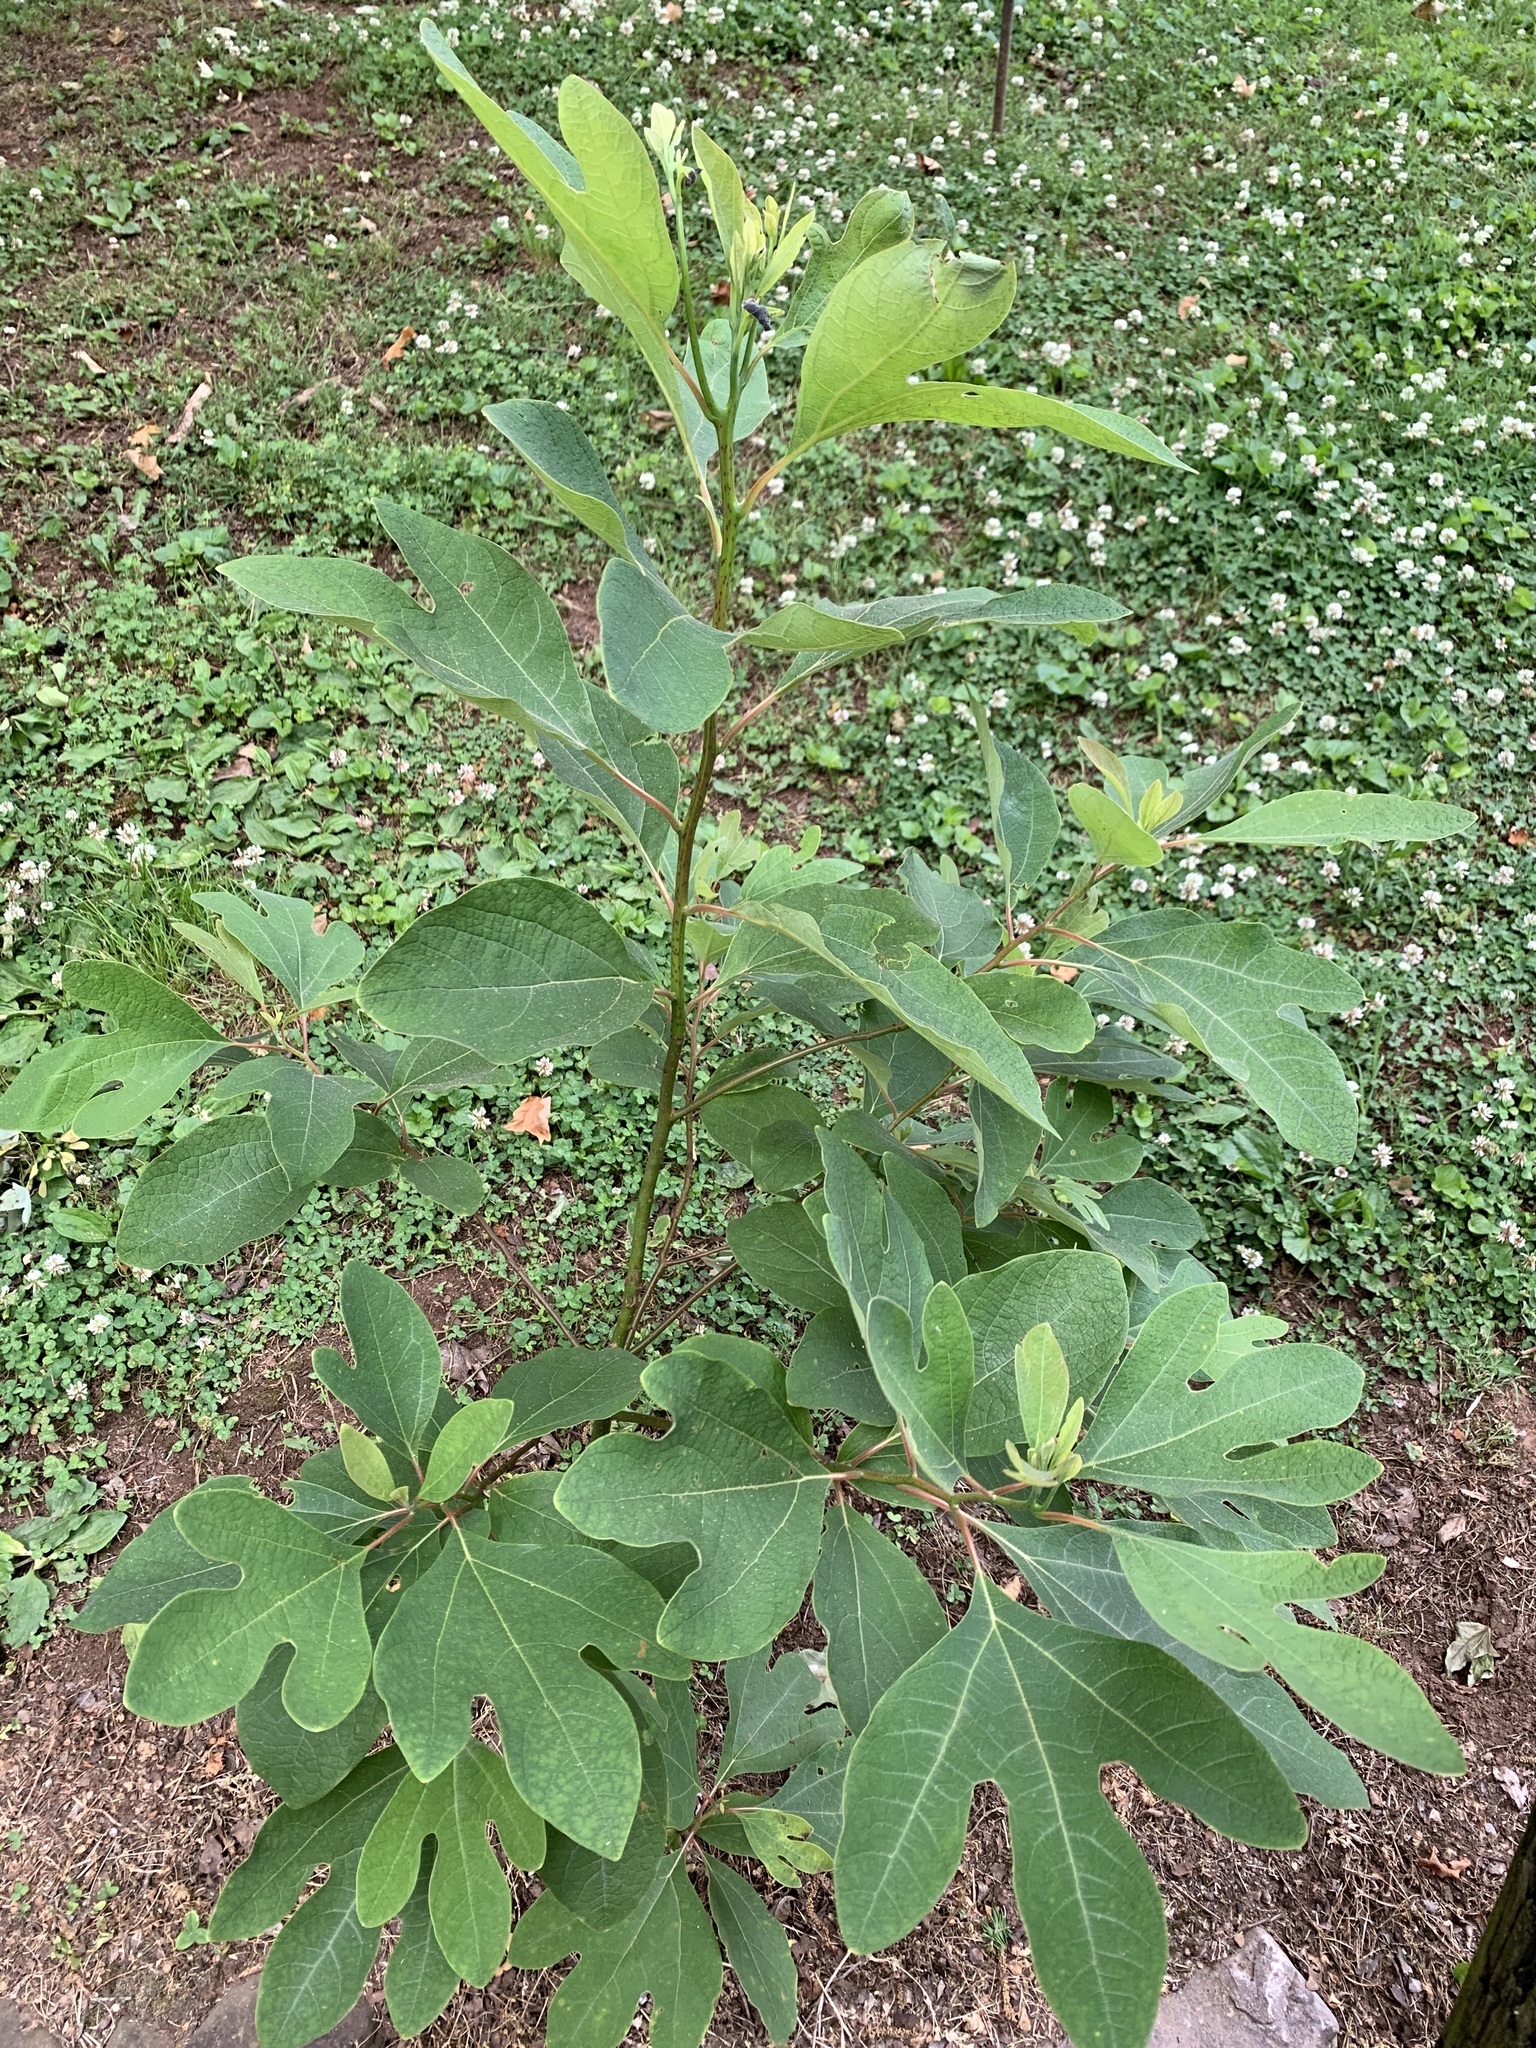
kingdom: Plantae
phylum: Tracheophyta
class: Magnoliopsida
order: Laurales
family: Lauraceae
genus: Sassafras
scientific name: Sassafras albidum
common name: Sassafras
